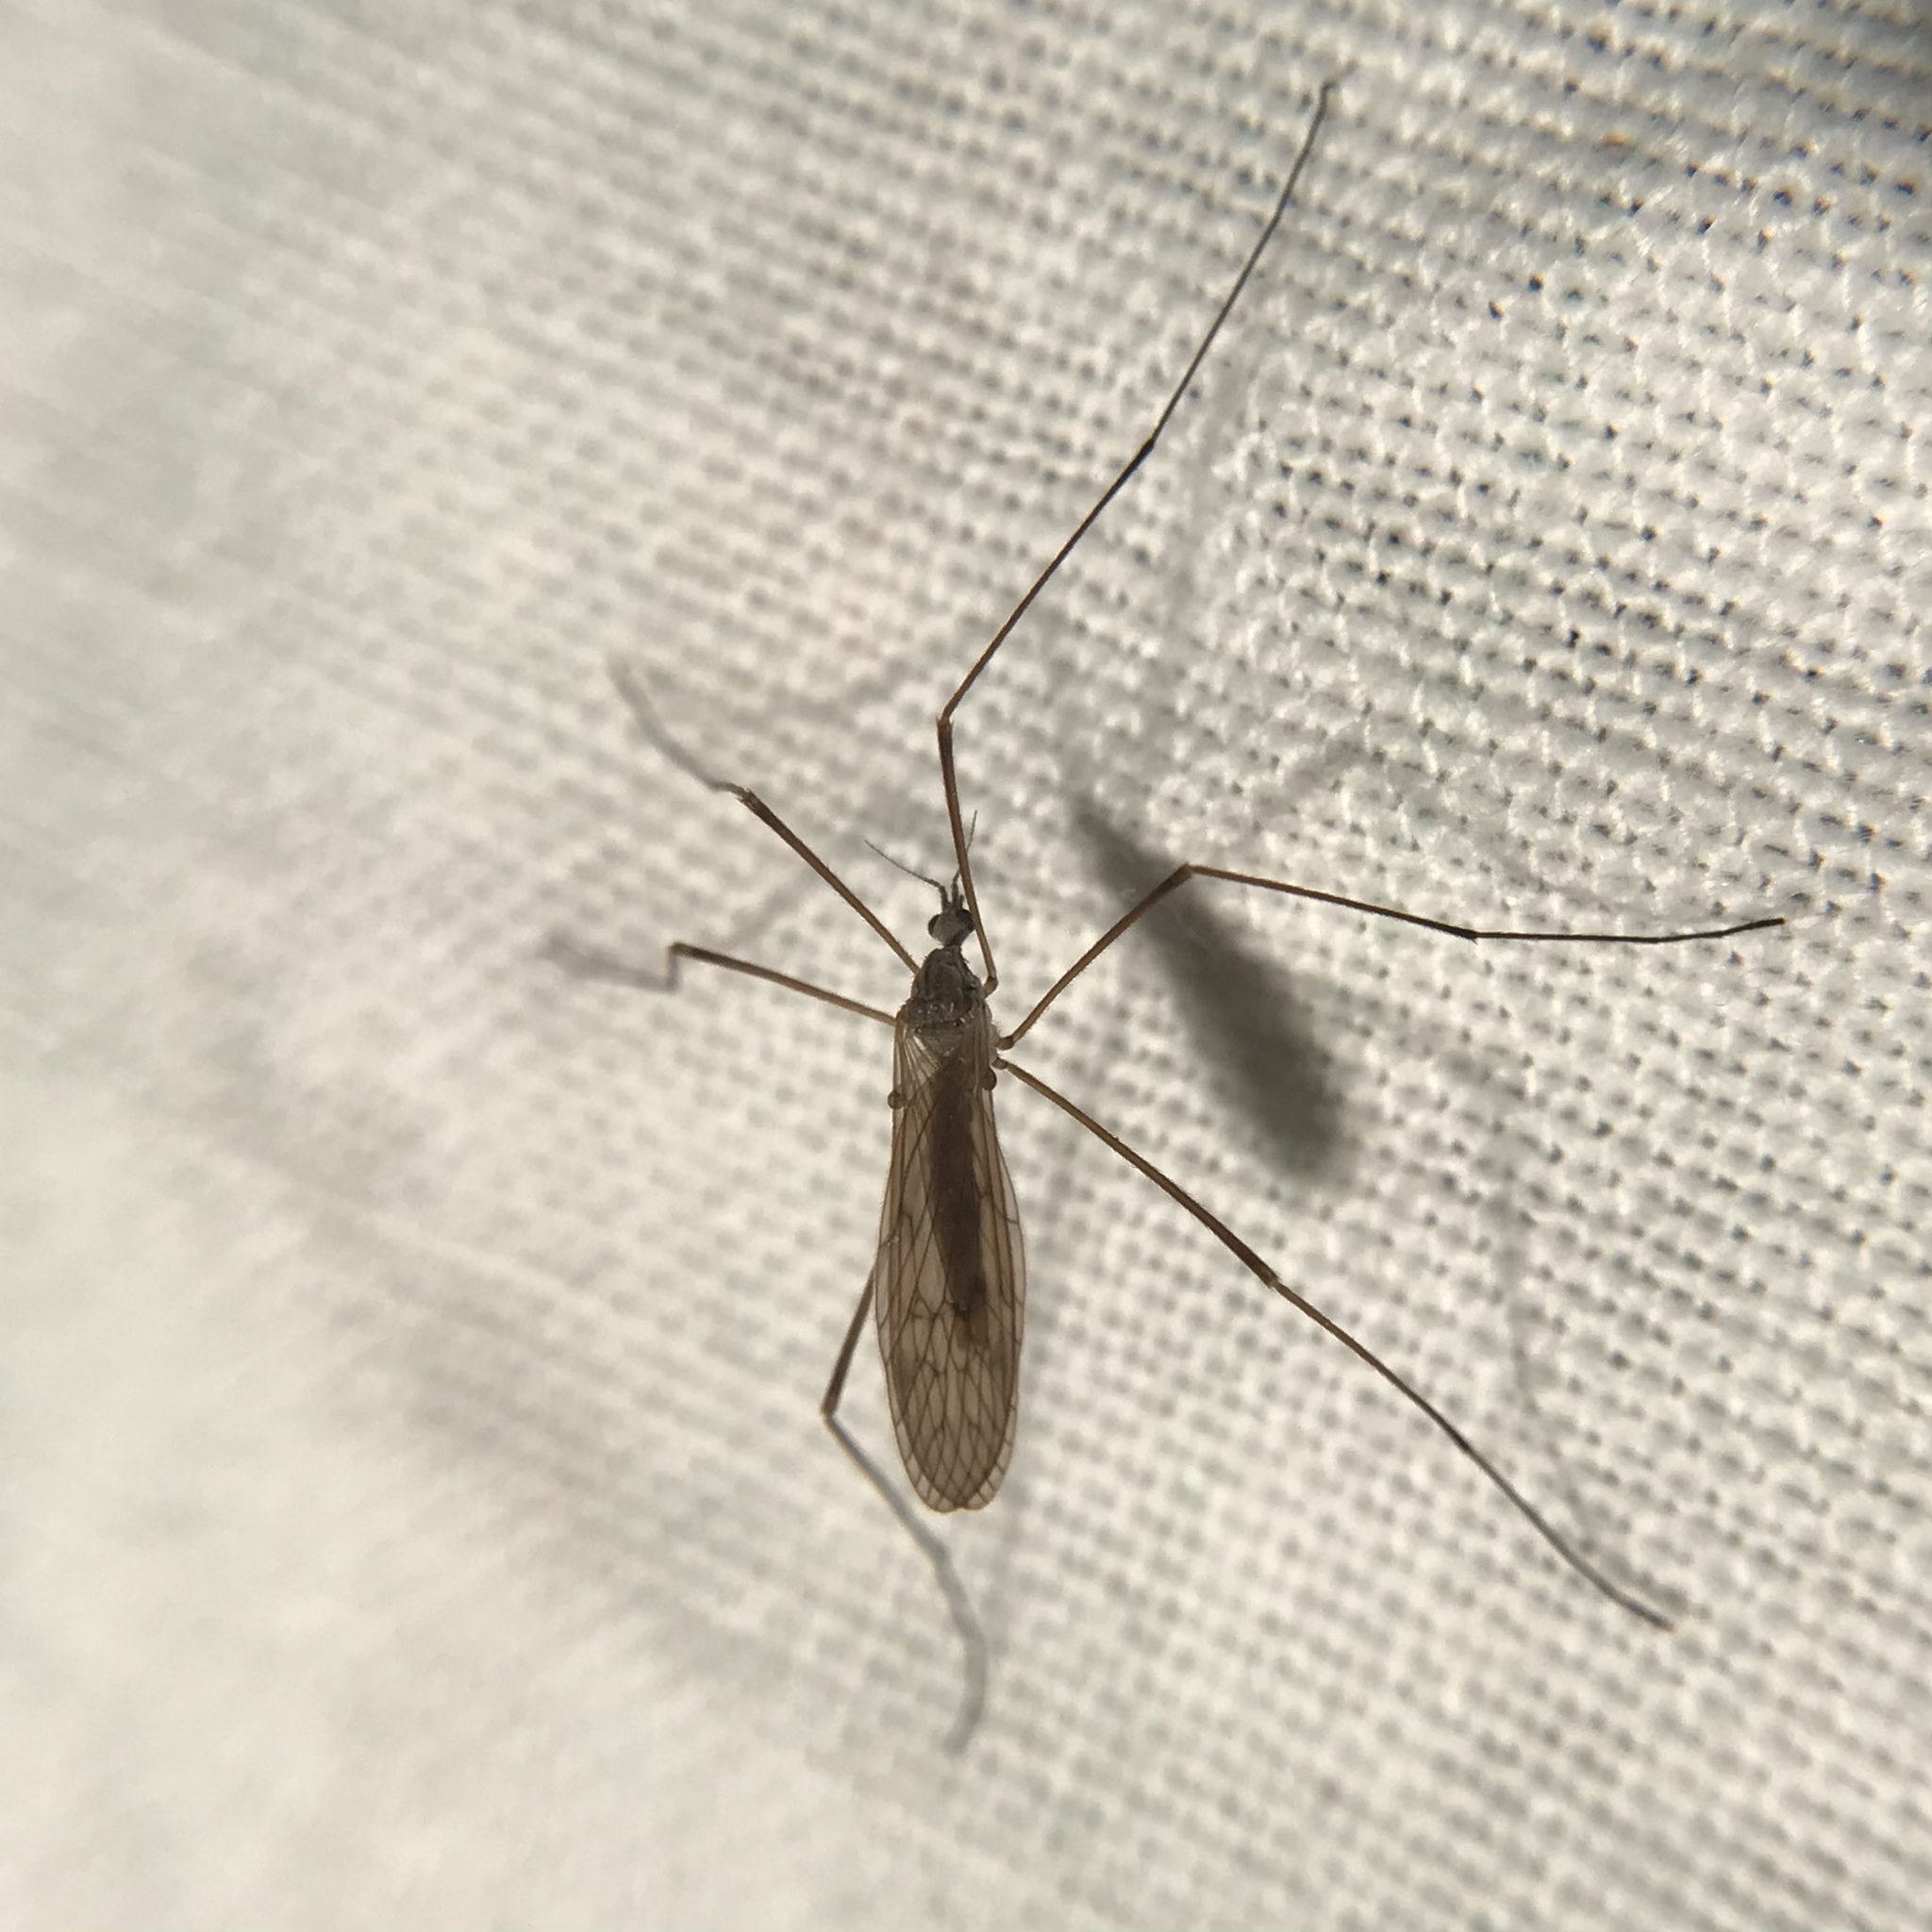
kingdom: Animalia
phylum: Arthropoda
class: Insecta
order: Diptera
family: Limoniidae
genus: Pseudolimnophila
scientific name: Pseudolimnophila luteipennis
